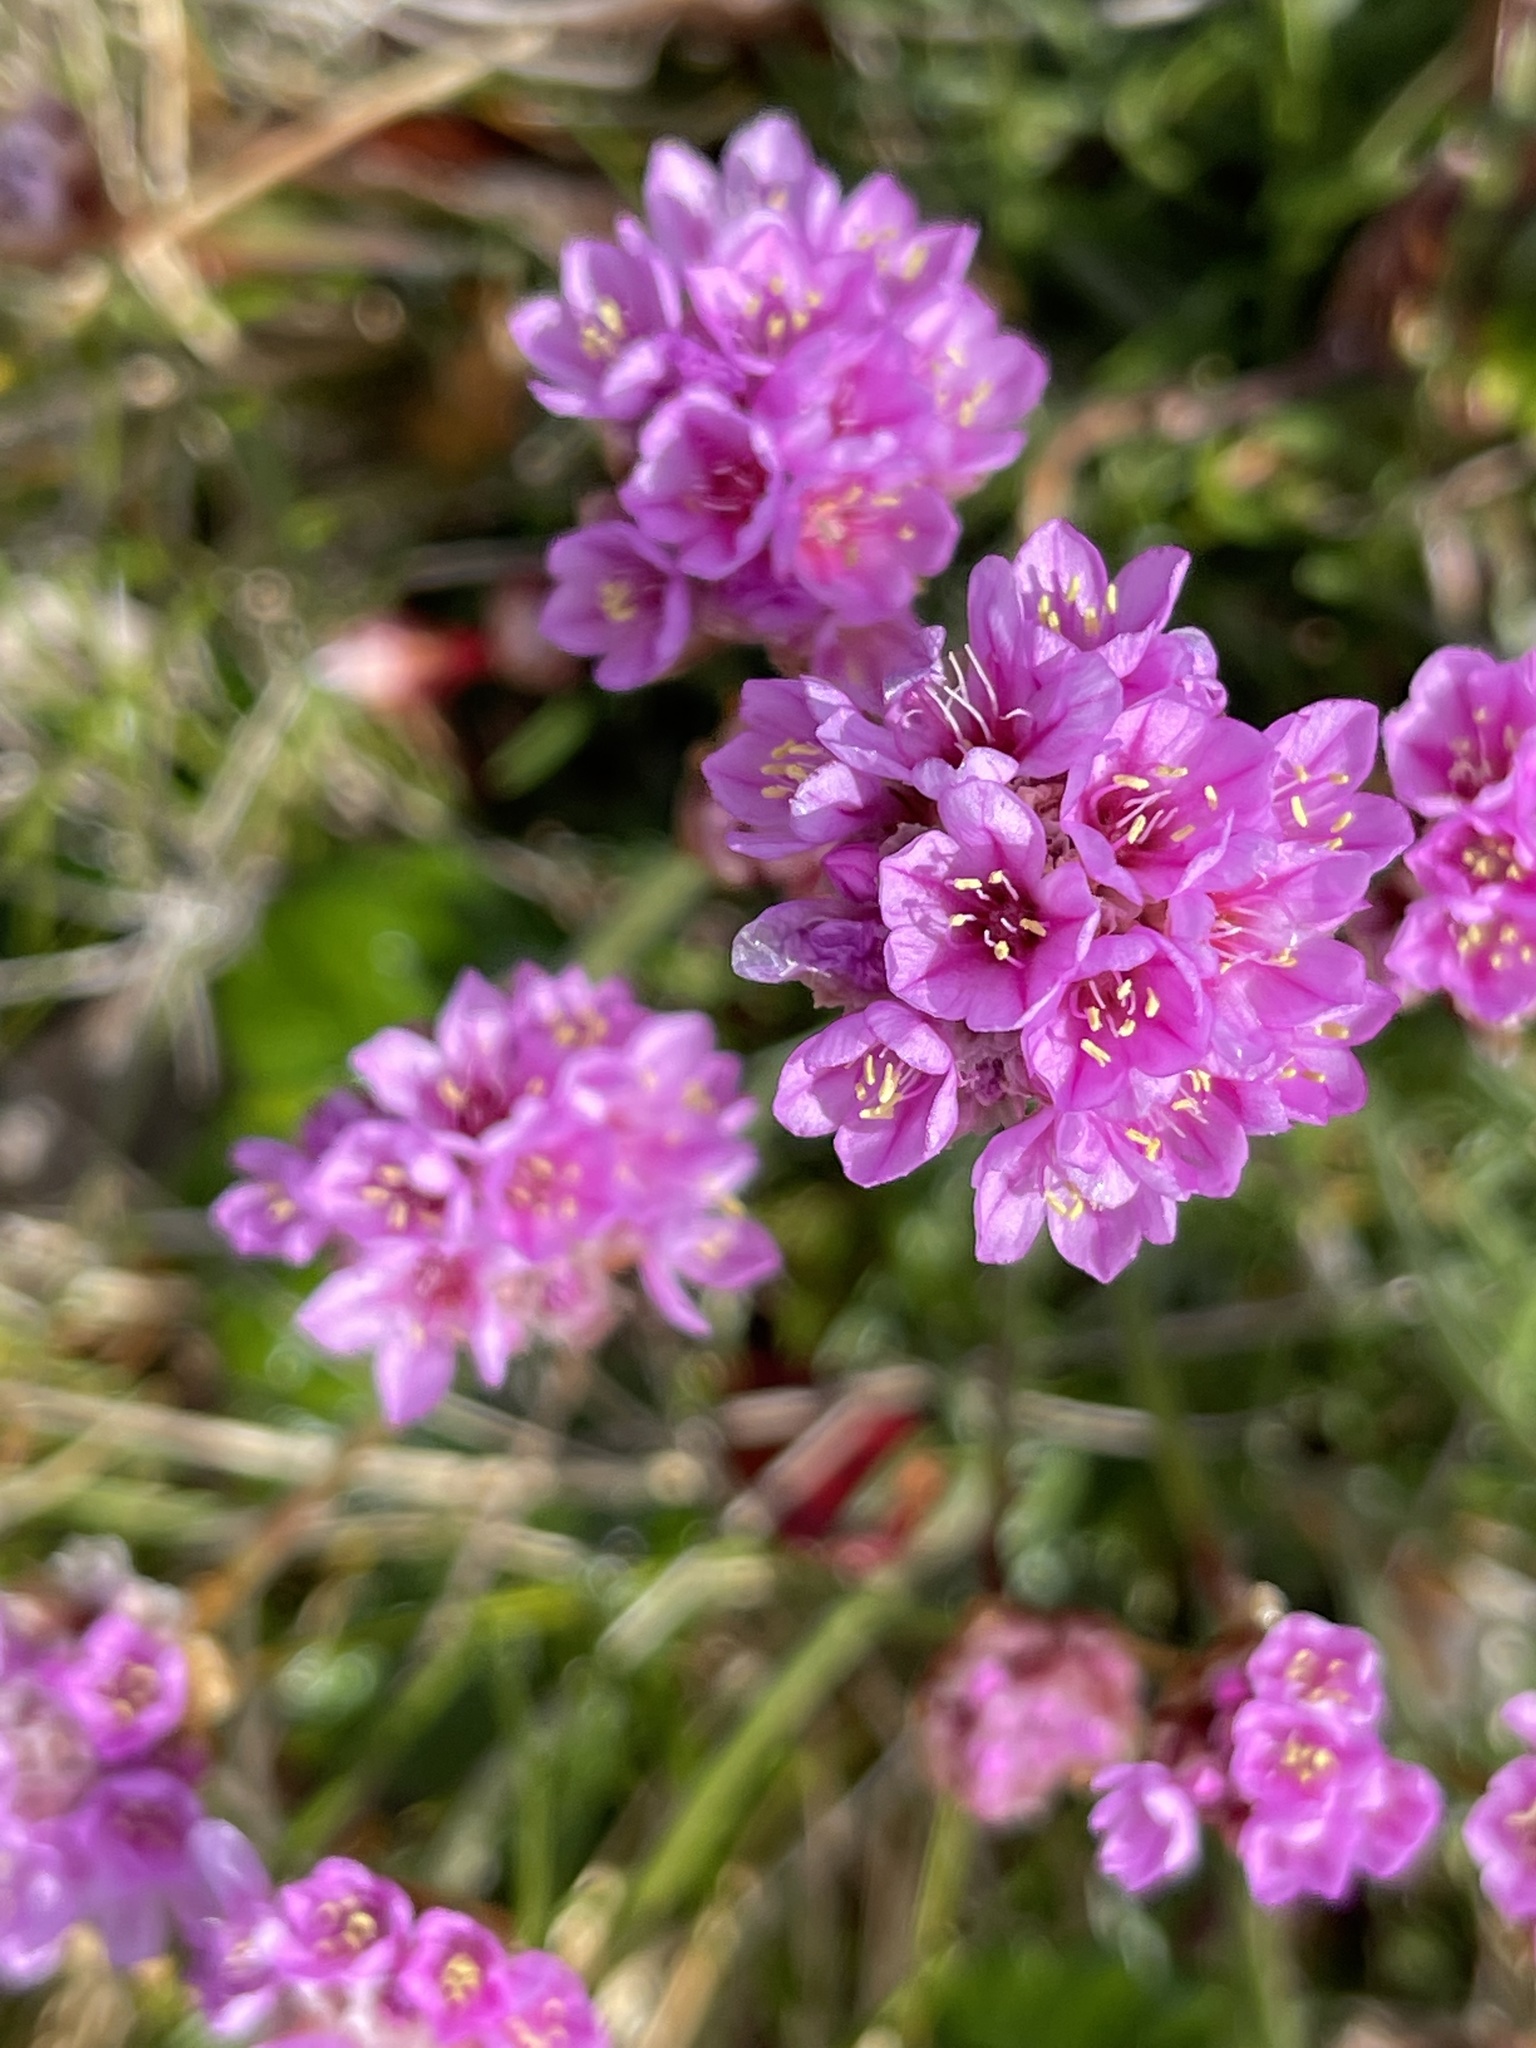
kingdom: Plantae
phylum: Tracheophyta
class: Magnoliopsida
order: Caryophyllales
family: Plumbaginaceae
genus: Armeria
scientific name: Armeria maritima
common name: Thrift
